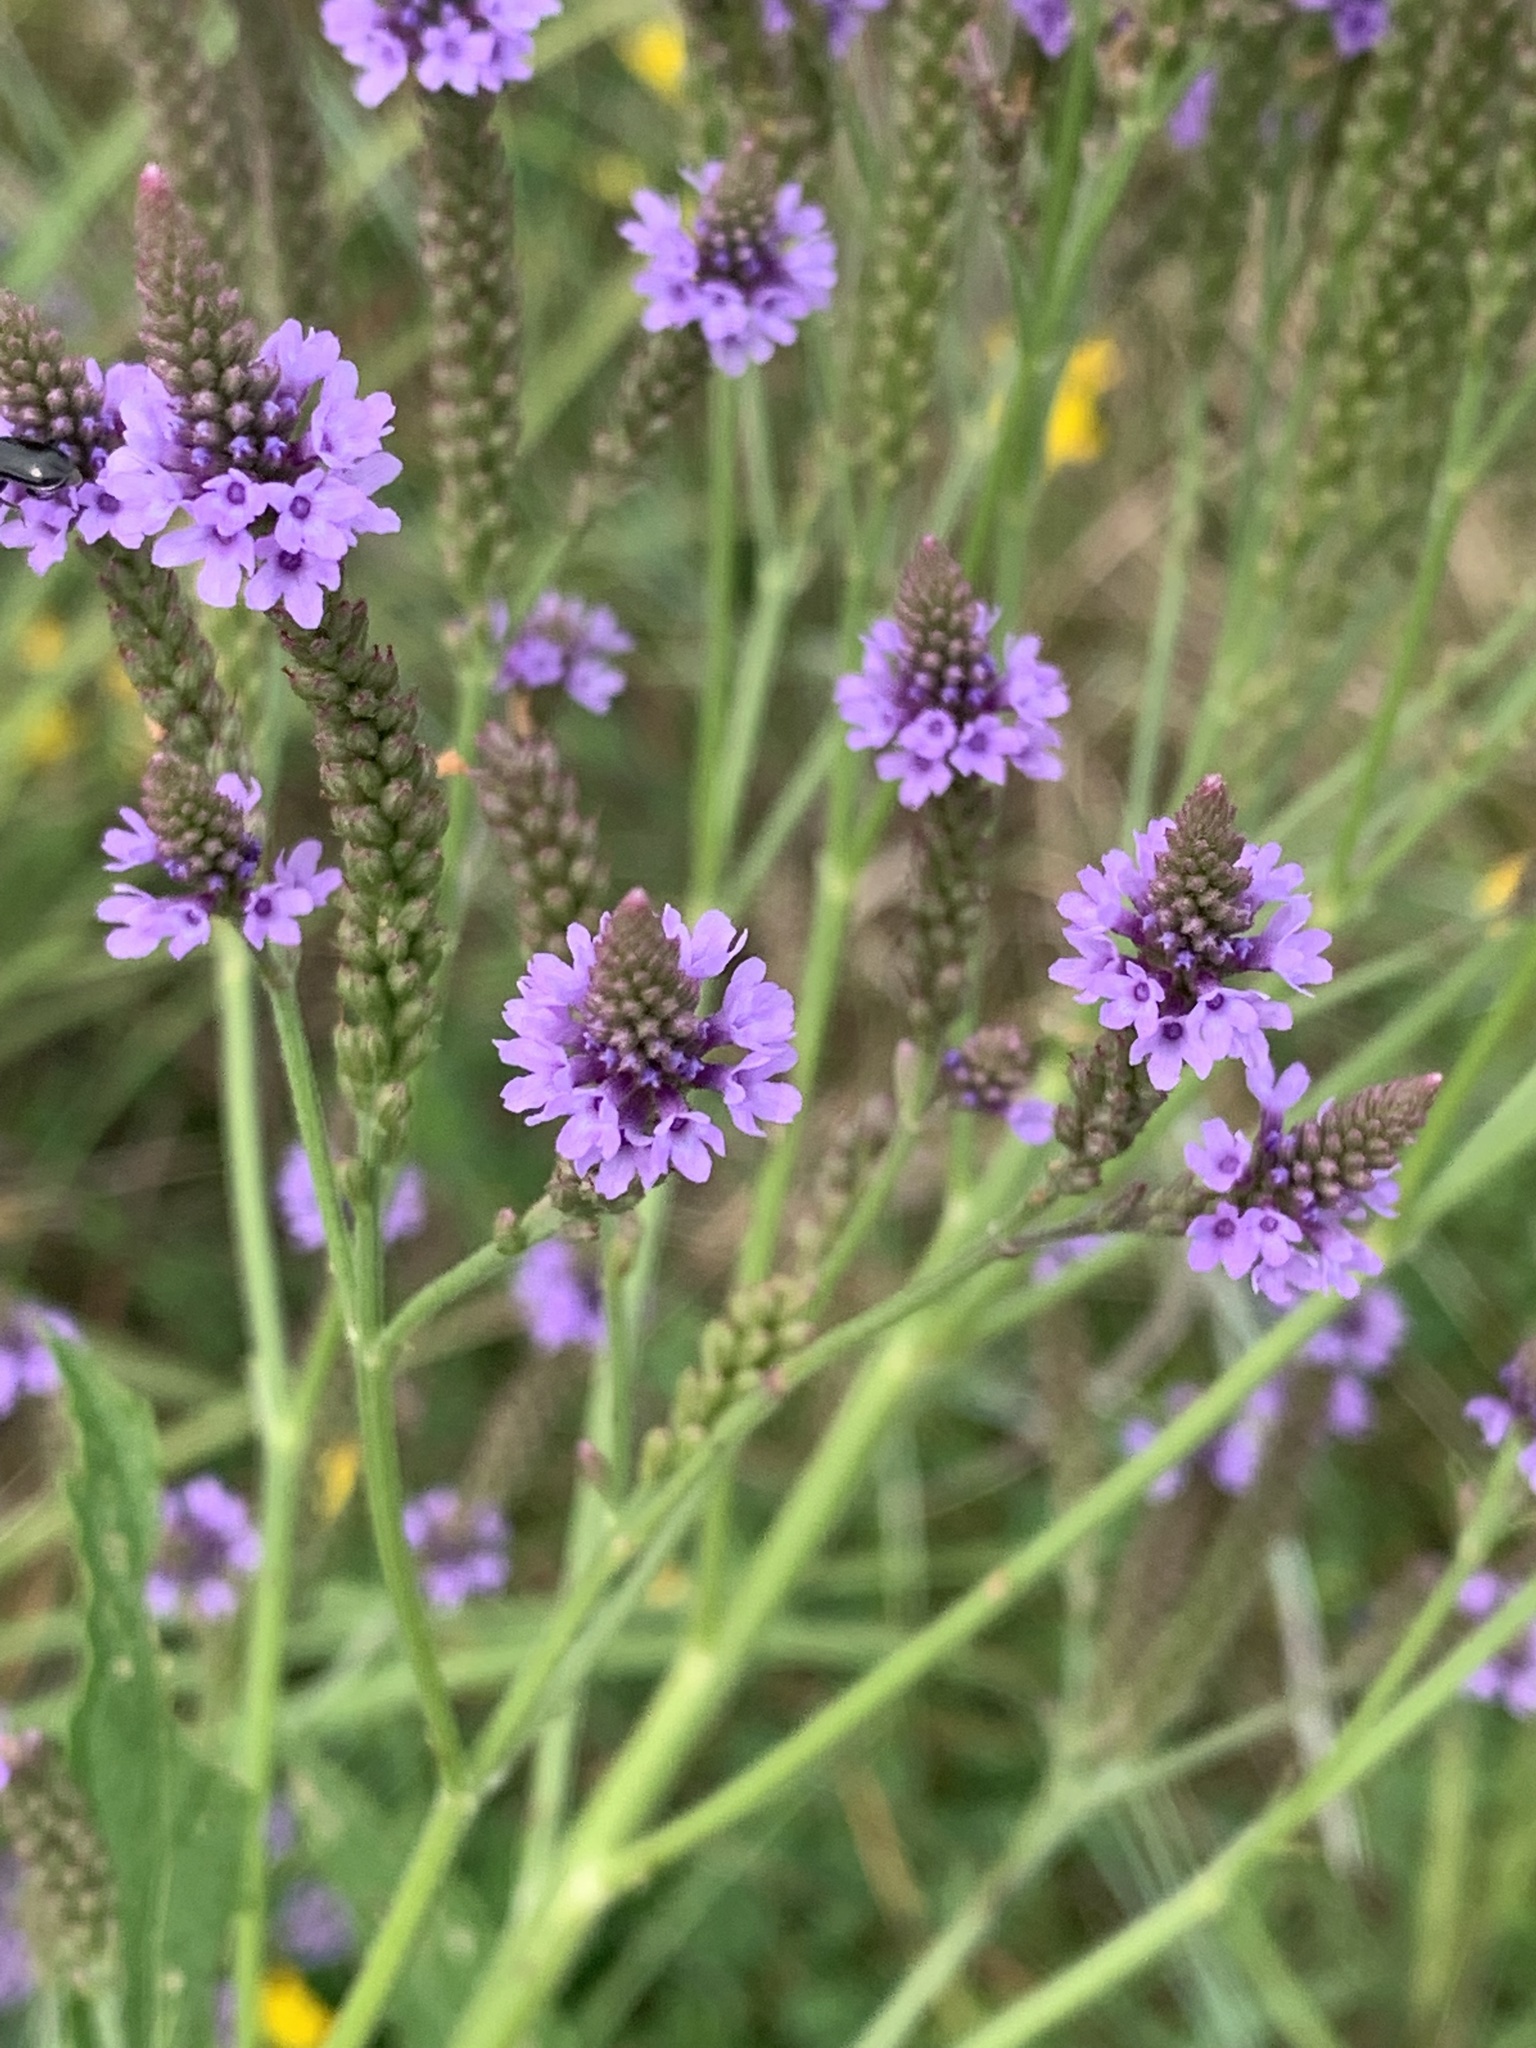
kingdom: Plantae
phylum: Tracheophyta
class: Magnoliopsida
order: Lamiales
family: Verbenaceae
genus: Verbena
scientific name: Verbena hastata
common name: American blue vervain
